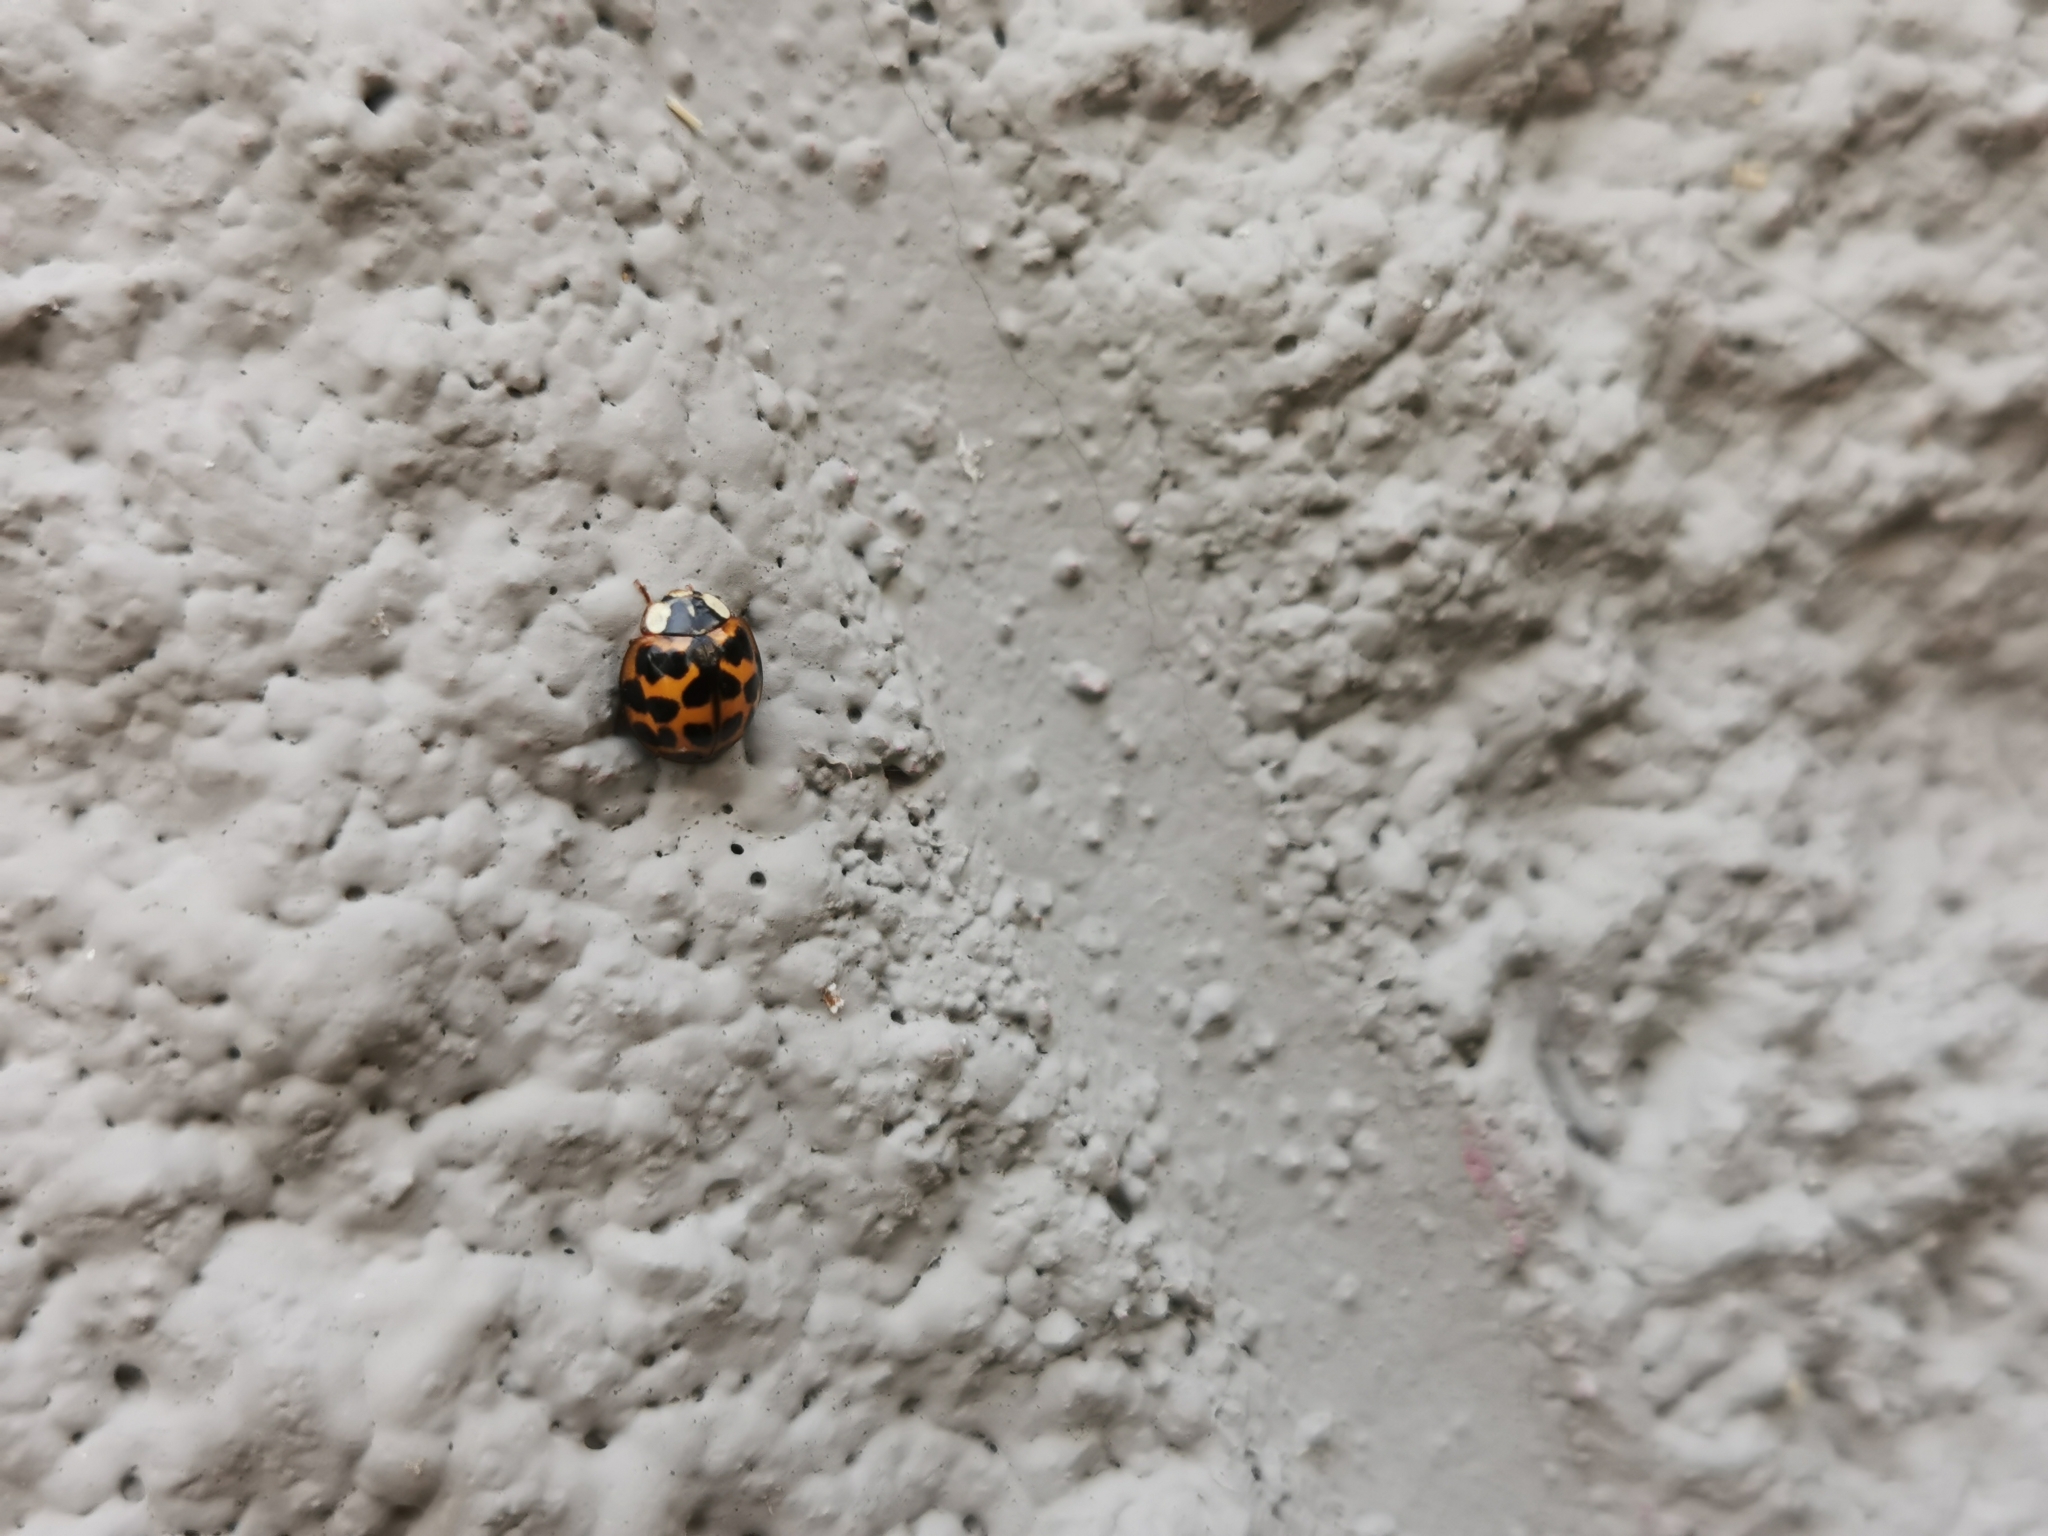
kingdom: Animalia
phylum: Arthropoda
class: Insecta
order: Coleoptera
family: Coccinellidae
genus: Harmonia
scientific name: Harmonia axyridis
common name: Harlequin ladybird
